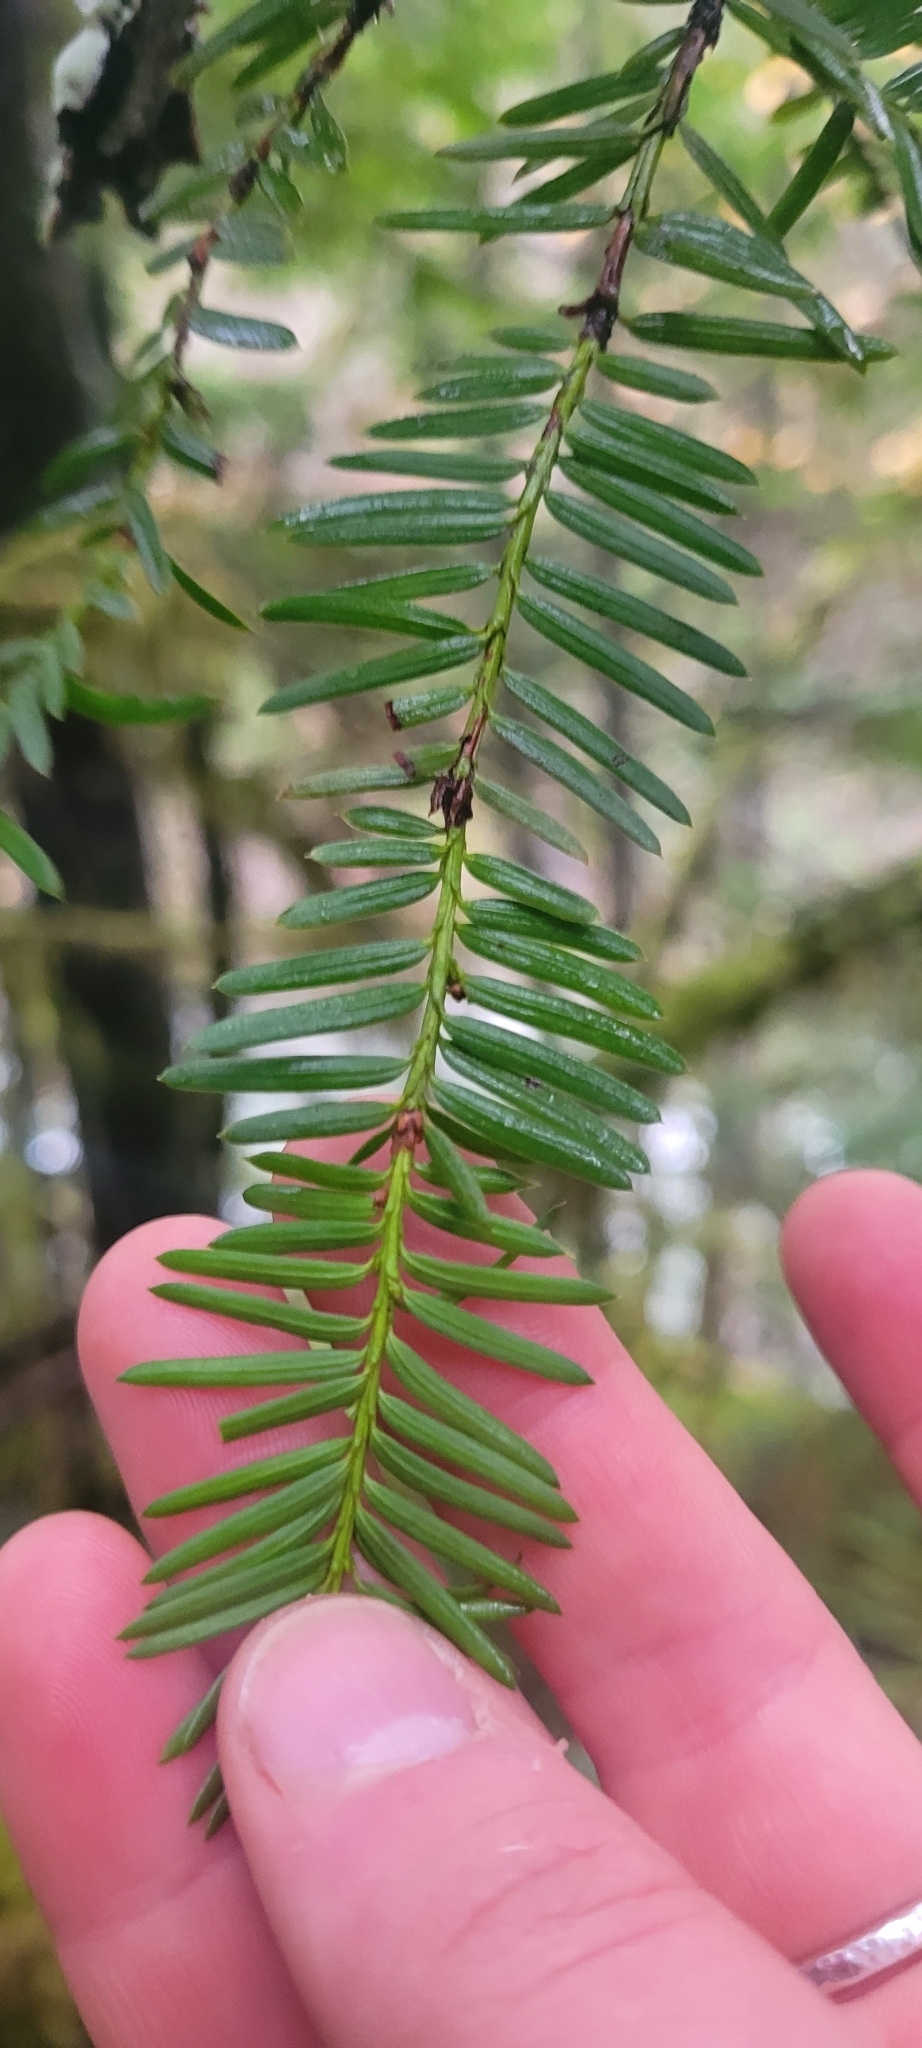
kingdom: Plantae
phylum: Tracheophyta
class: Pinopsida
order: Pinales
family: Taxaceae
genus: Taxus
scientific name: Taxus brevifolia
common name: Pacific yew
